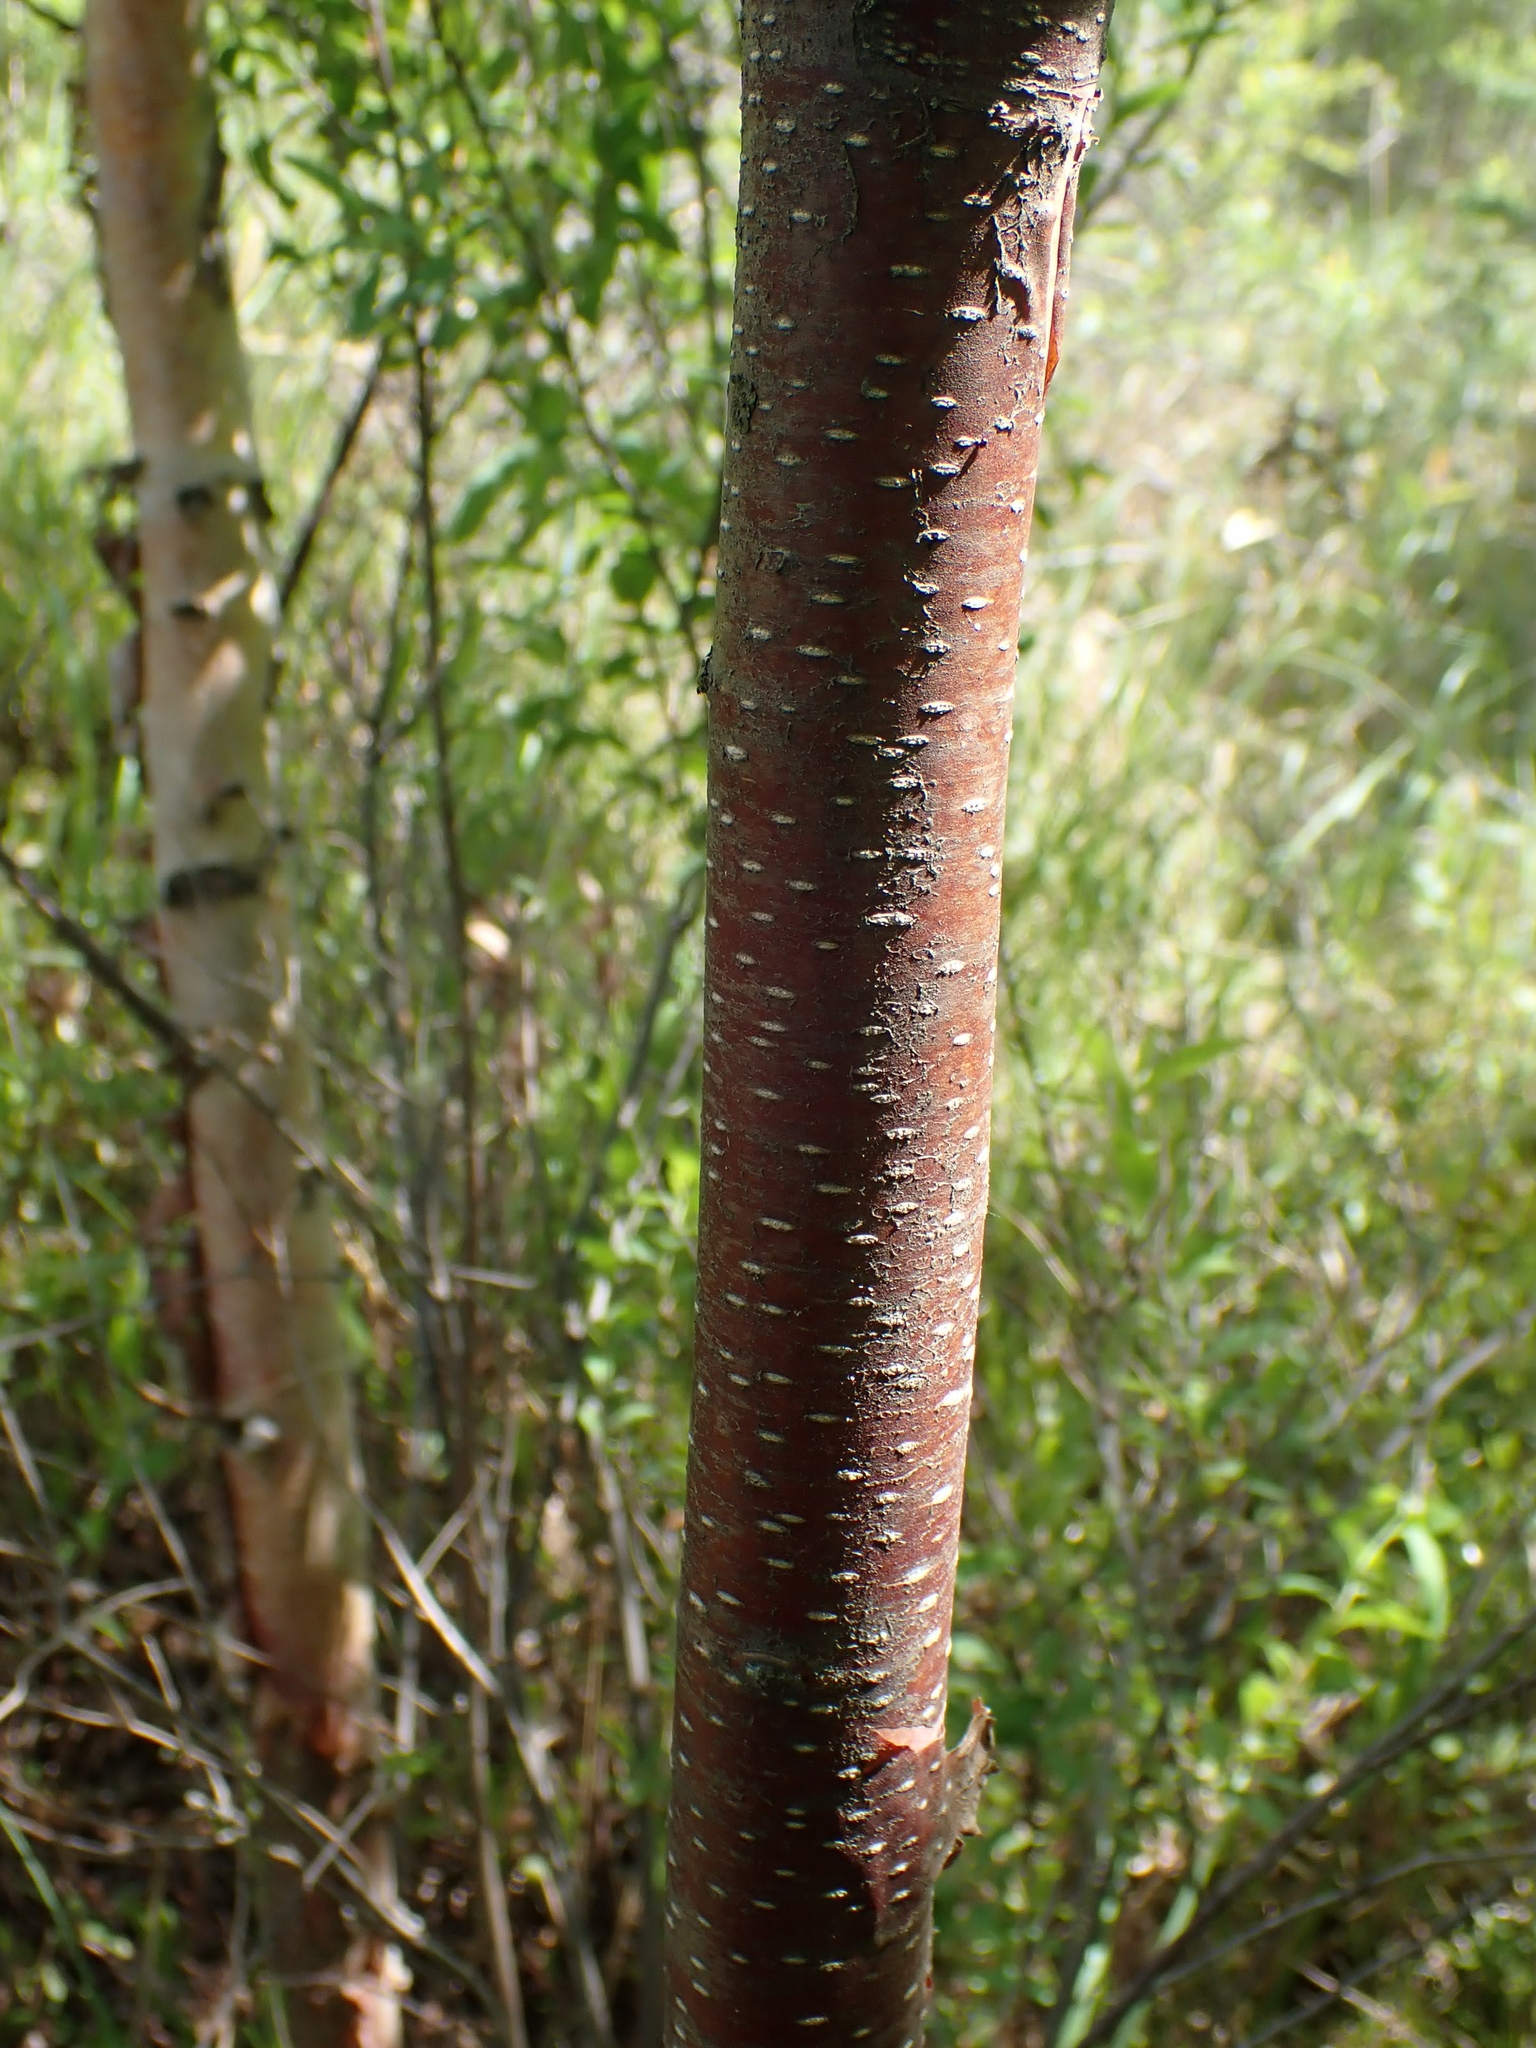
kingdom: Plantae
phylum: Tracheophyta
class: Magnoliopsida
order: Fagales
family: Betulaceae
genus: Alnus
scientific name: Alnus incana
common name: Grey alder
